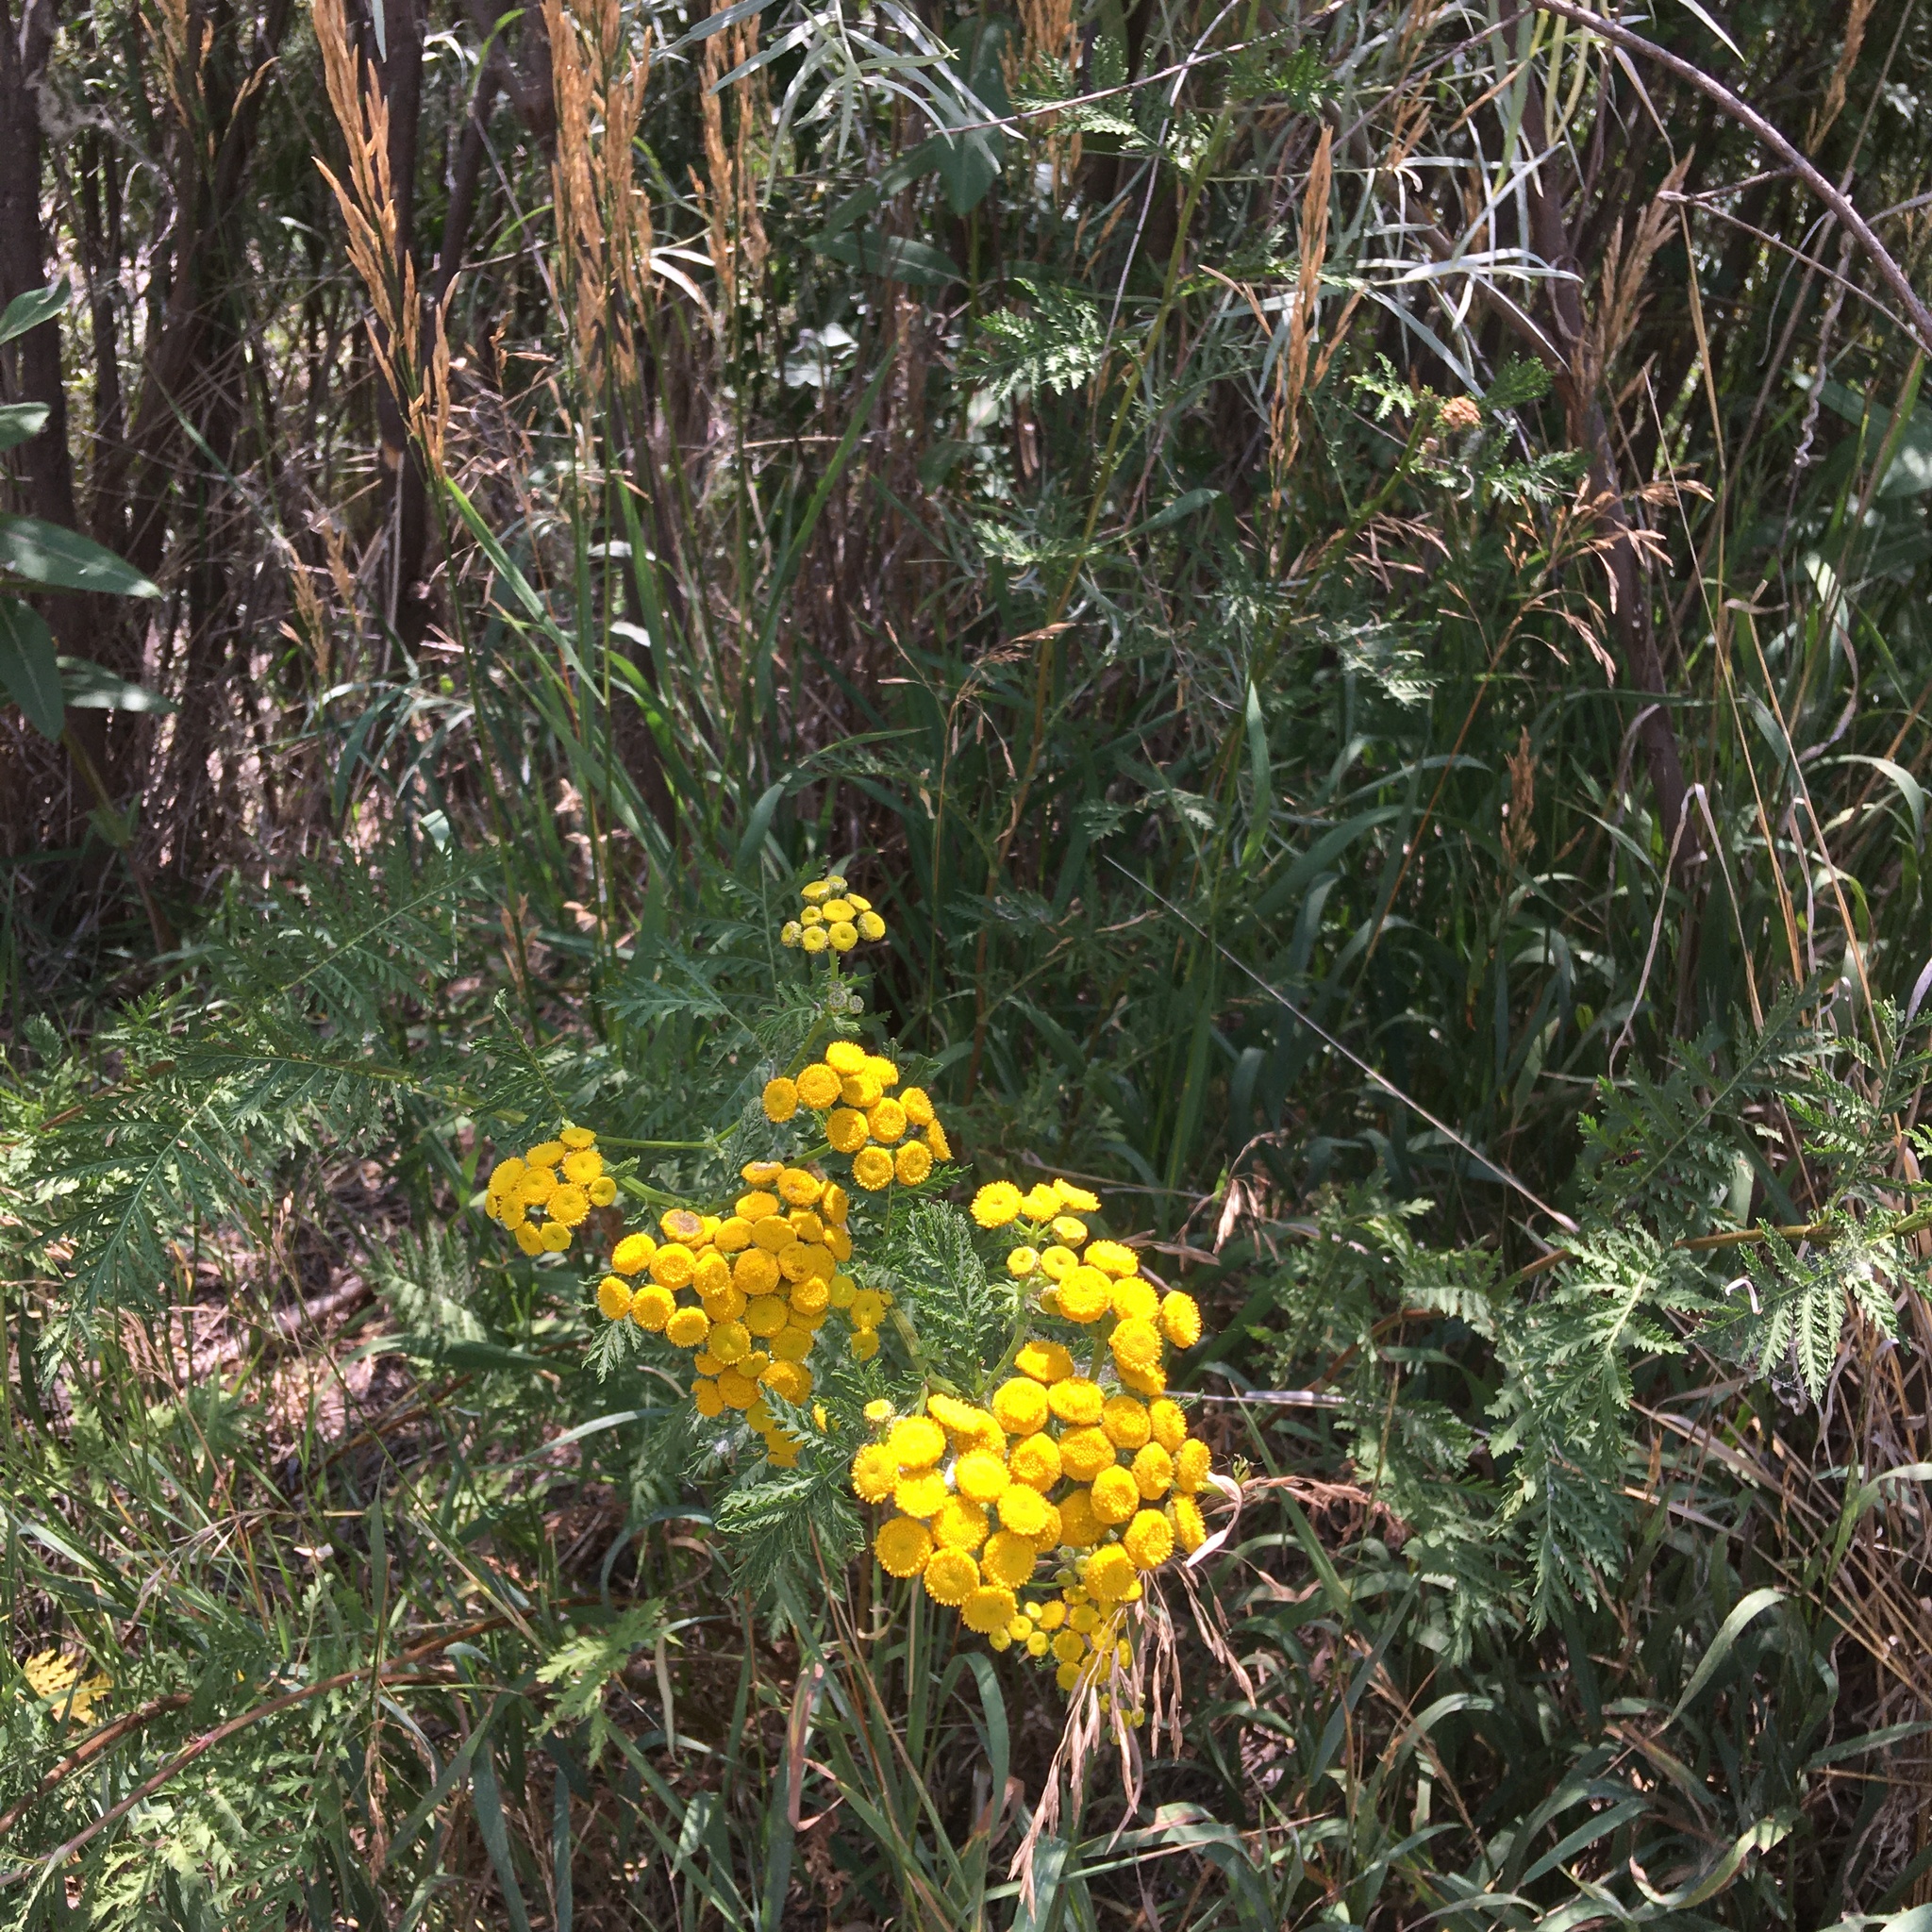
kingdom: Plantae
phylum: Tracheophyta
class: Magnoliopsida
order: Asterales
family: Asteraceae
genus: Tanacetum
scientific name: Tanacetum vulgare
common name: Common tansy
